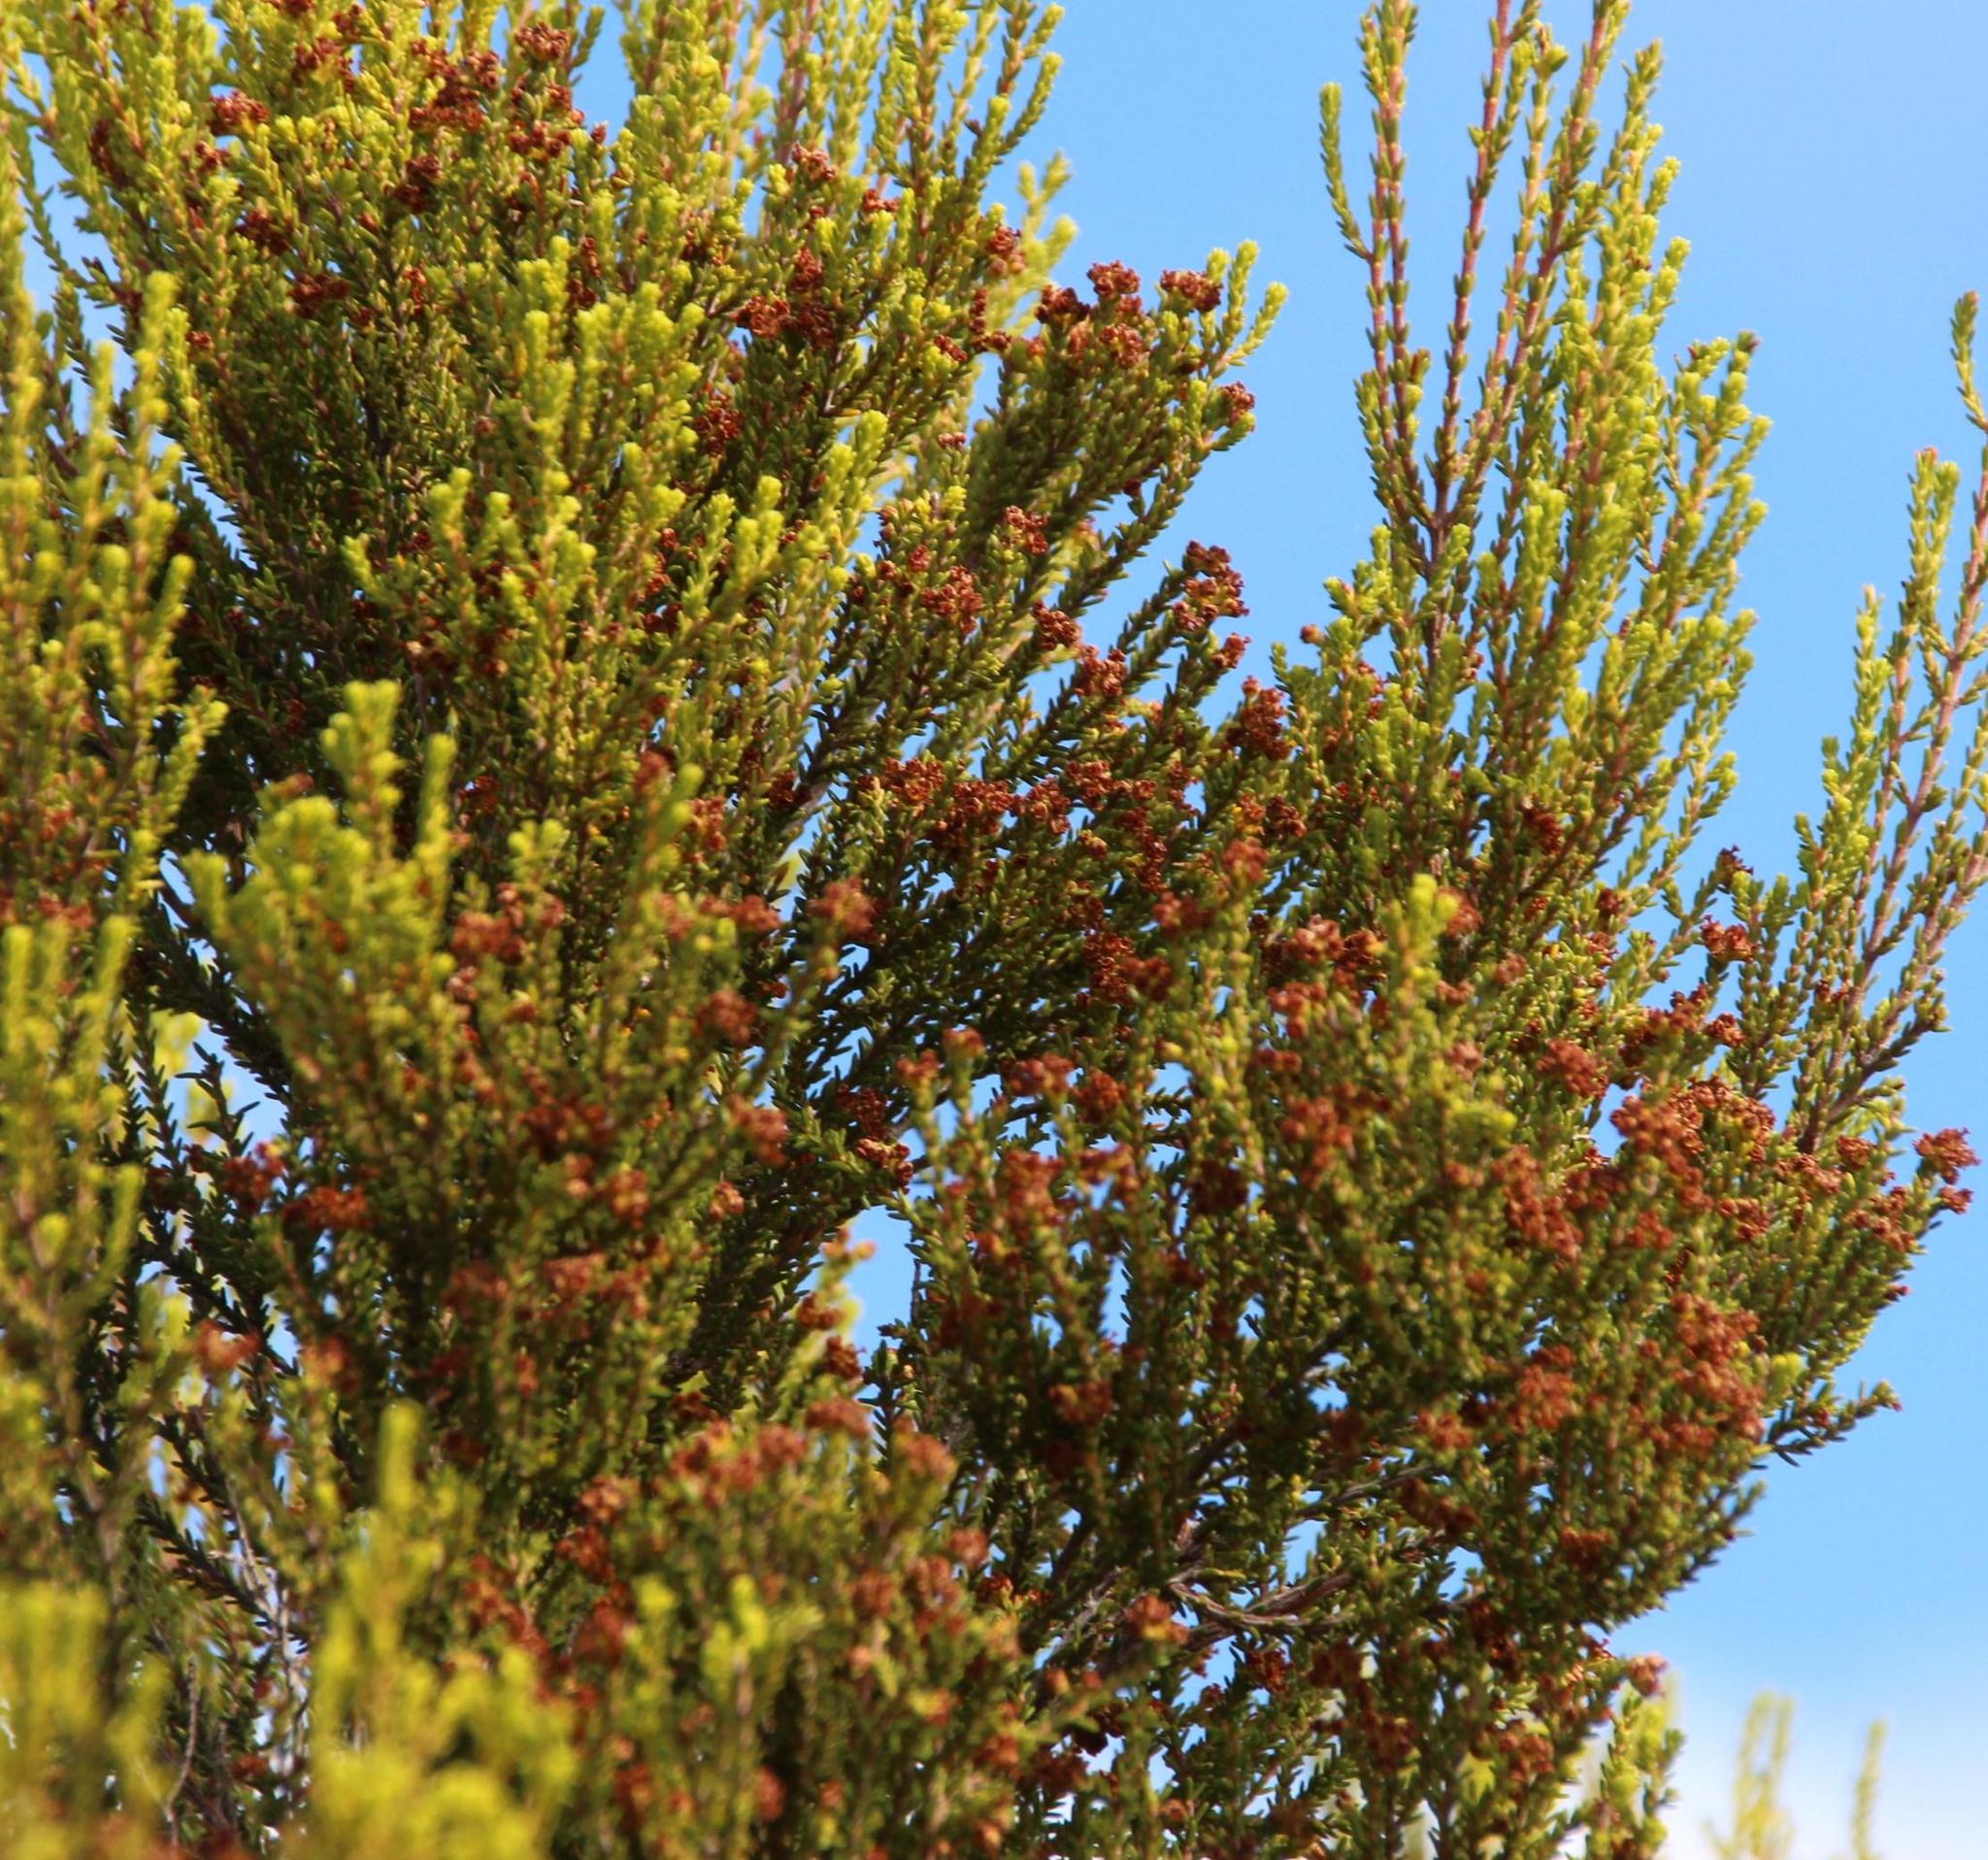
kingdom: Plantae
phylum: Tracheophyta
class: Magnoliopsida
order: Ericales
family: Ericaceae
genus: Erica
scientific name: Erica tristis
